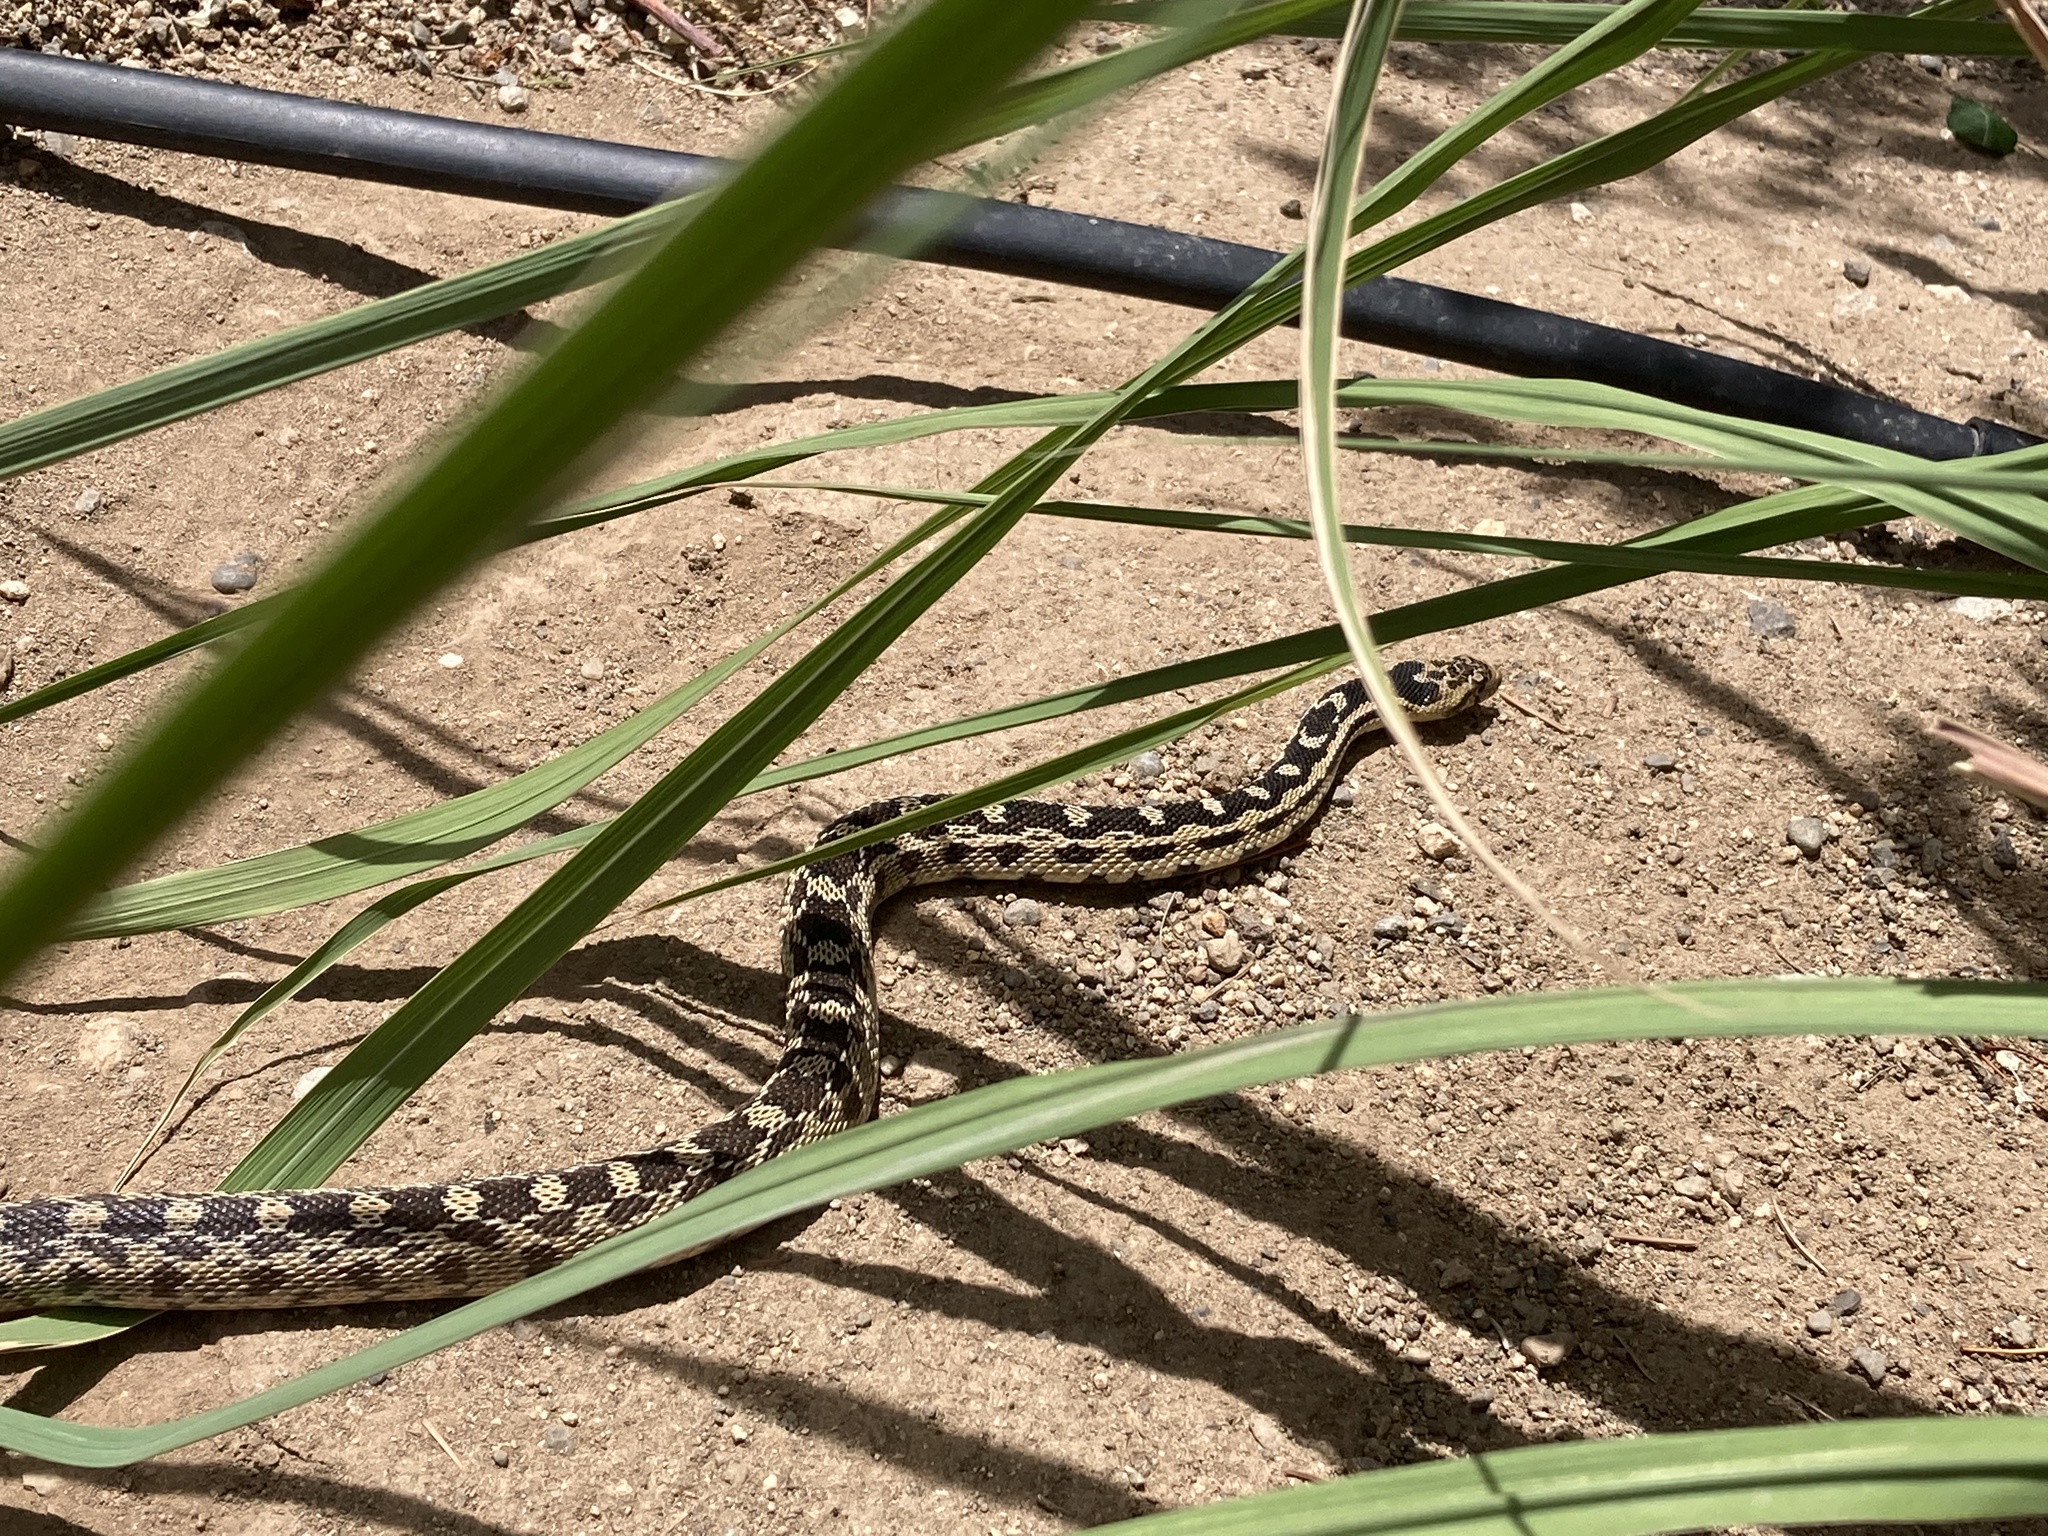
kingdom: Animalia
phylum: Chordata
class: Squamata
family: Colubridae
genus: Pituophis
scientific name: Pituophis catenifer
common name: Gopher snake
